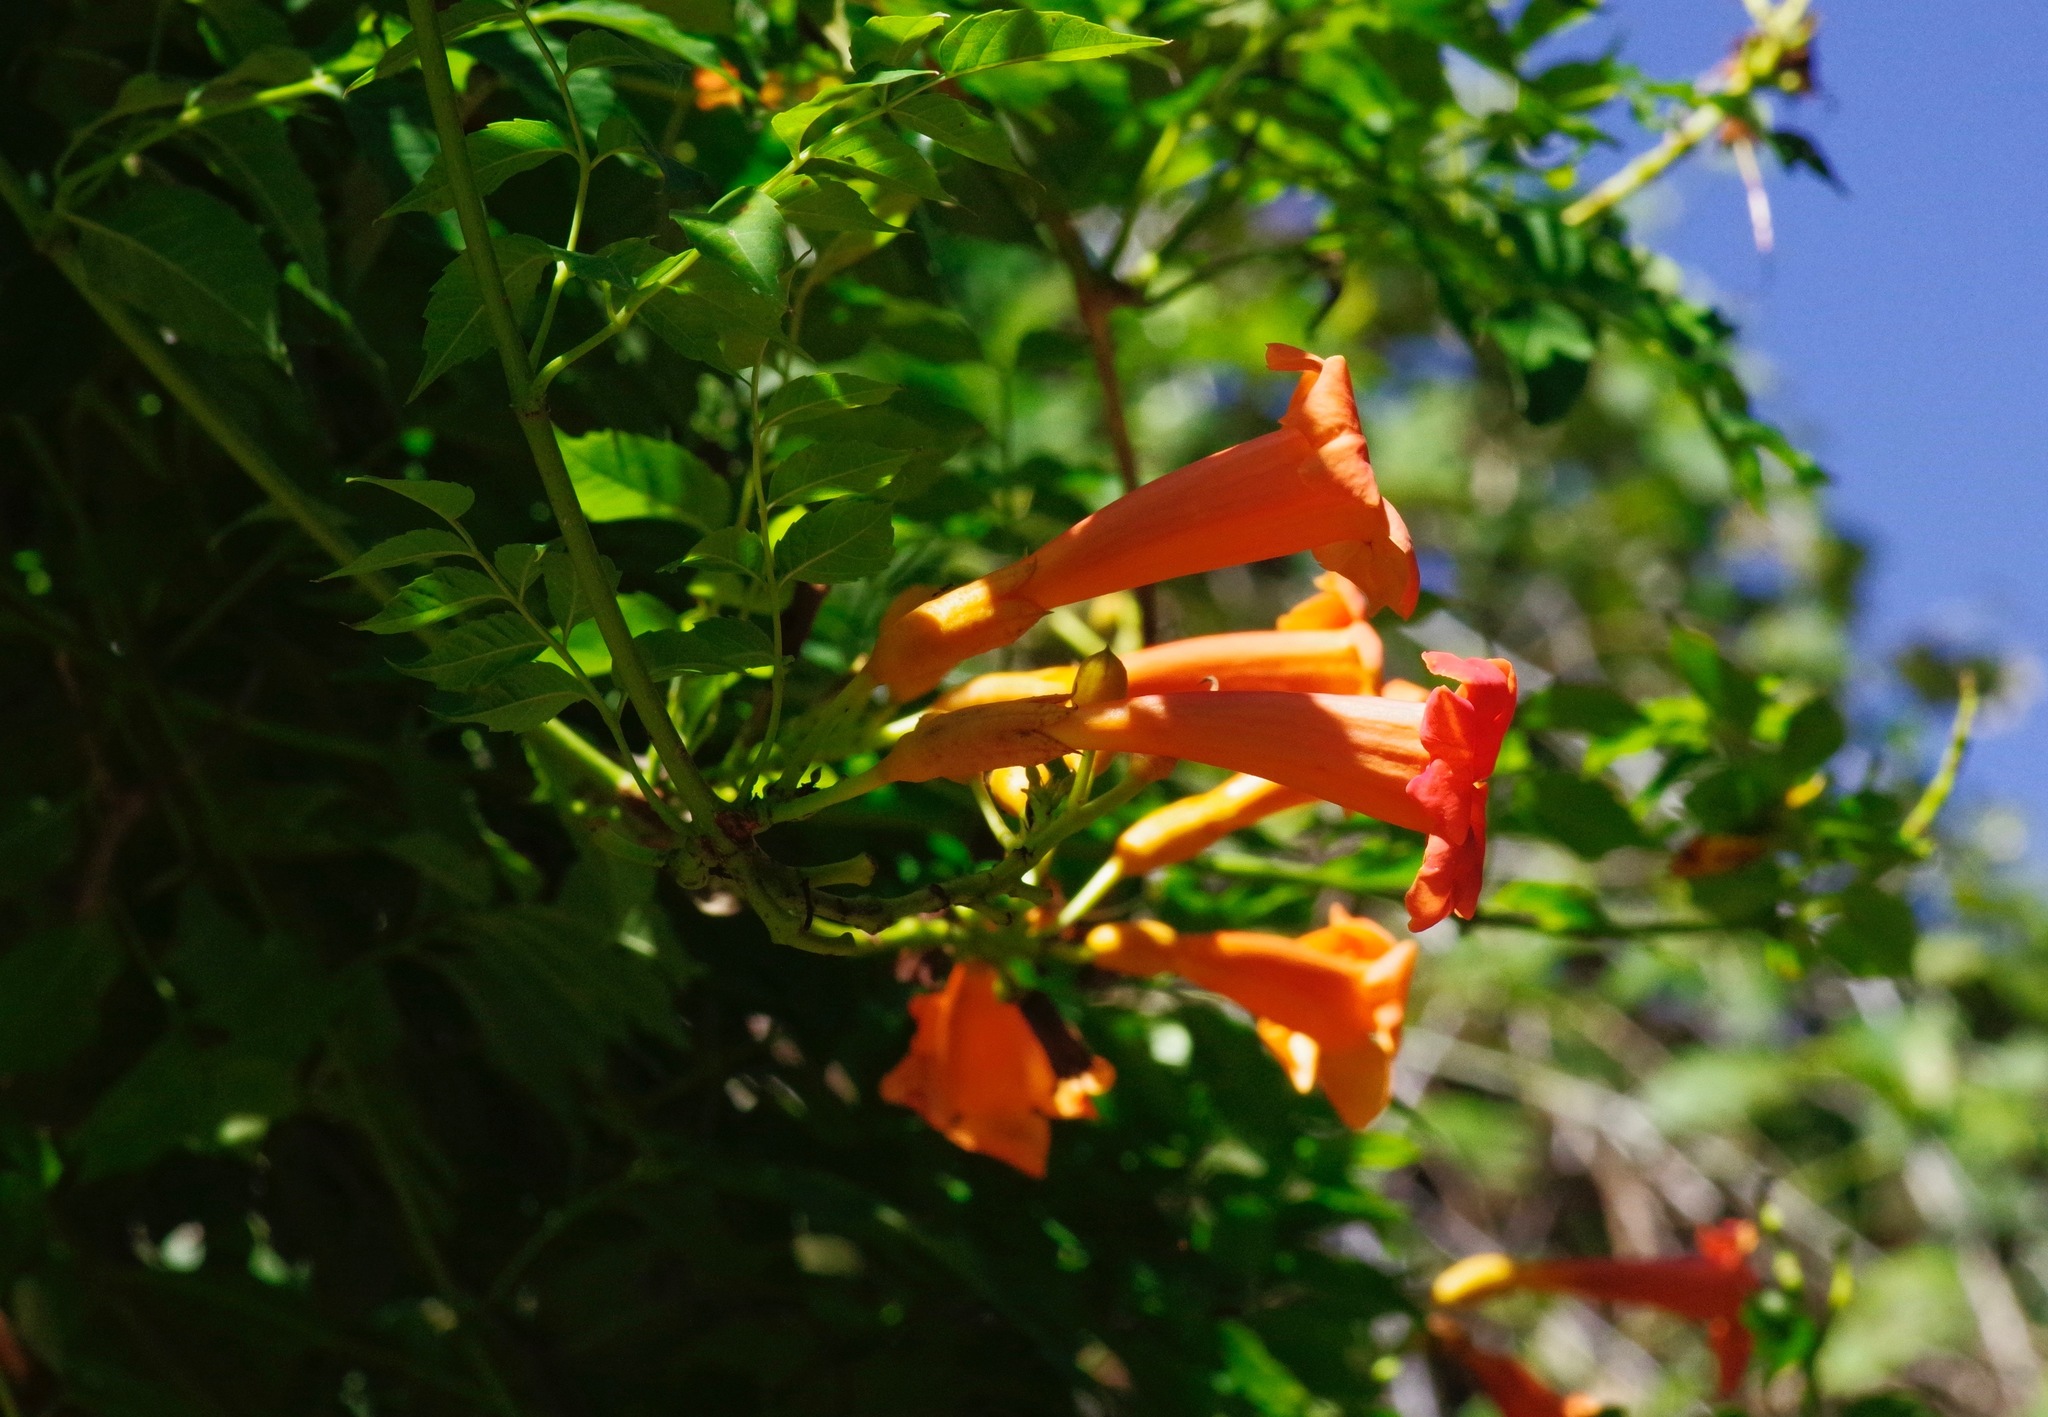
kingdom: Plantae
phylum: Tracheophyta
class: Magnoliopsida
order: Lamiales
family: Bignoniaceae
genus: Campsis
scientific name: Campsis radicans
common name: Trumpet-creeper
